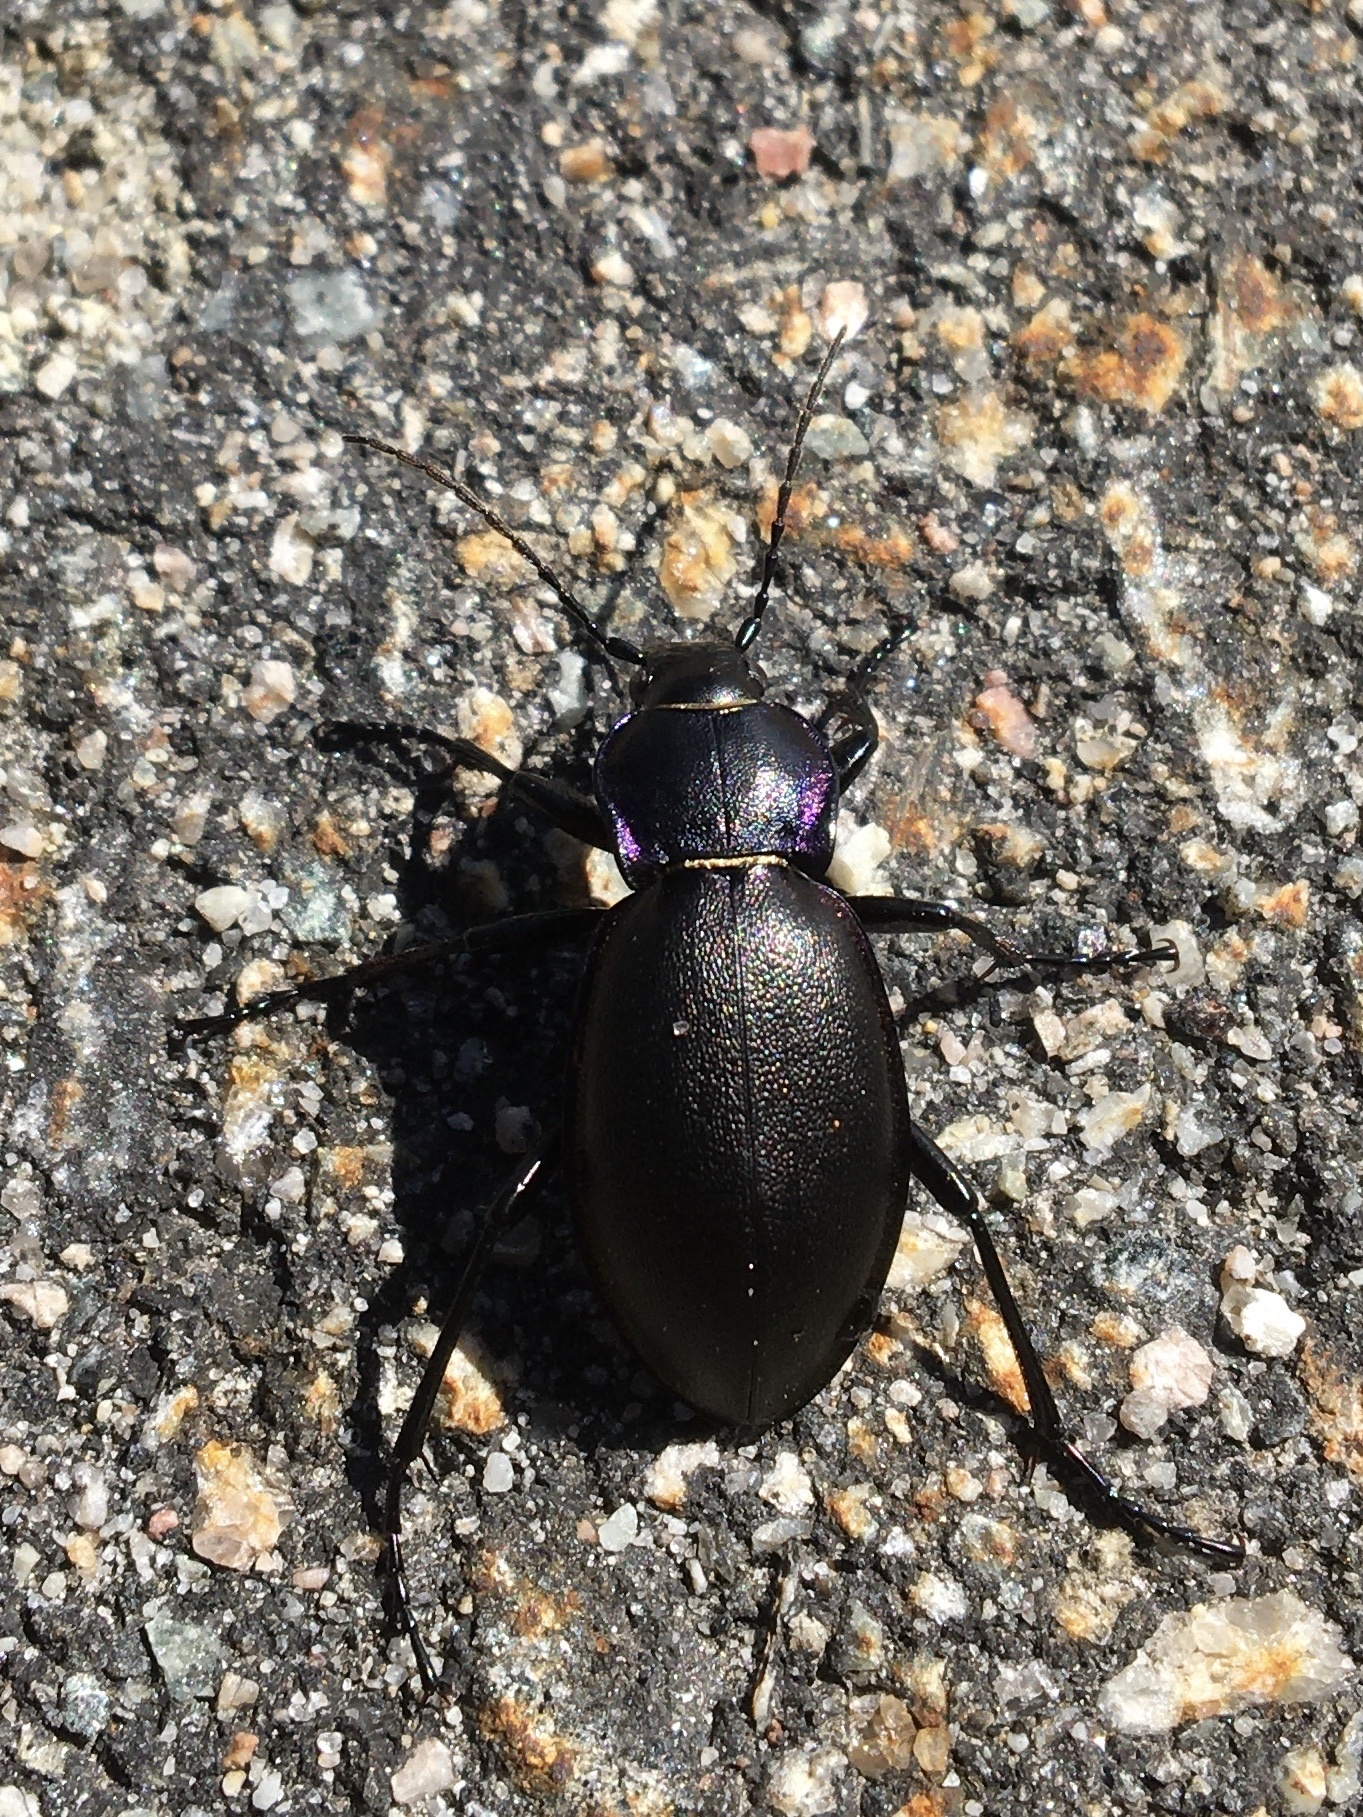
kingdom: Animalia
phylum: Arthropoda
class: Insecta
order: Coleoptera
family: Carabidae
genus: Carabus
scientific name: Carabus violaceus
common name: Violet ground beetle
